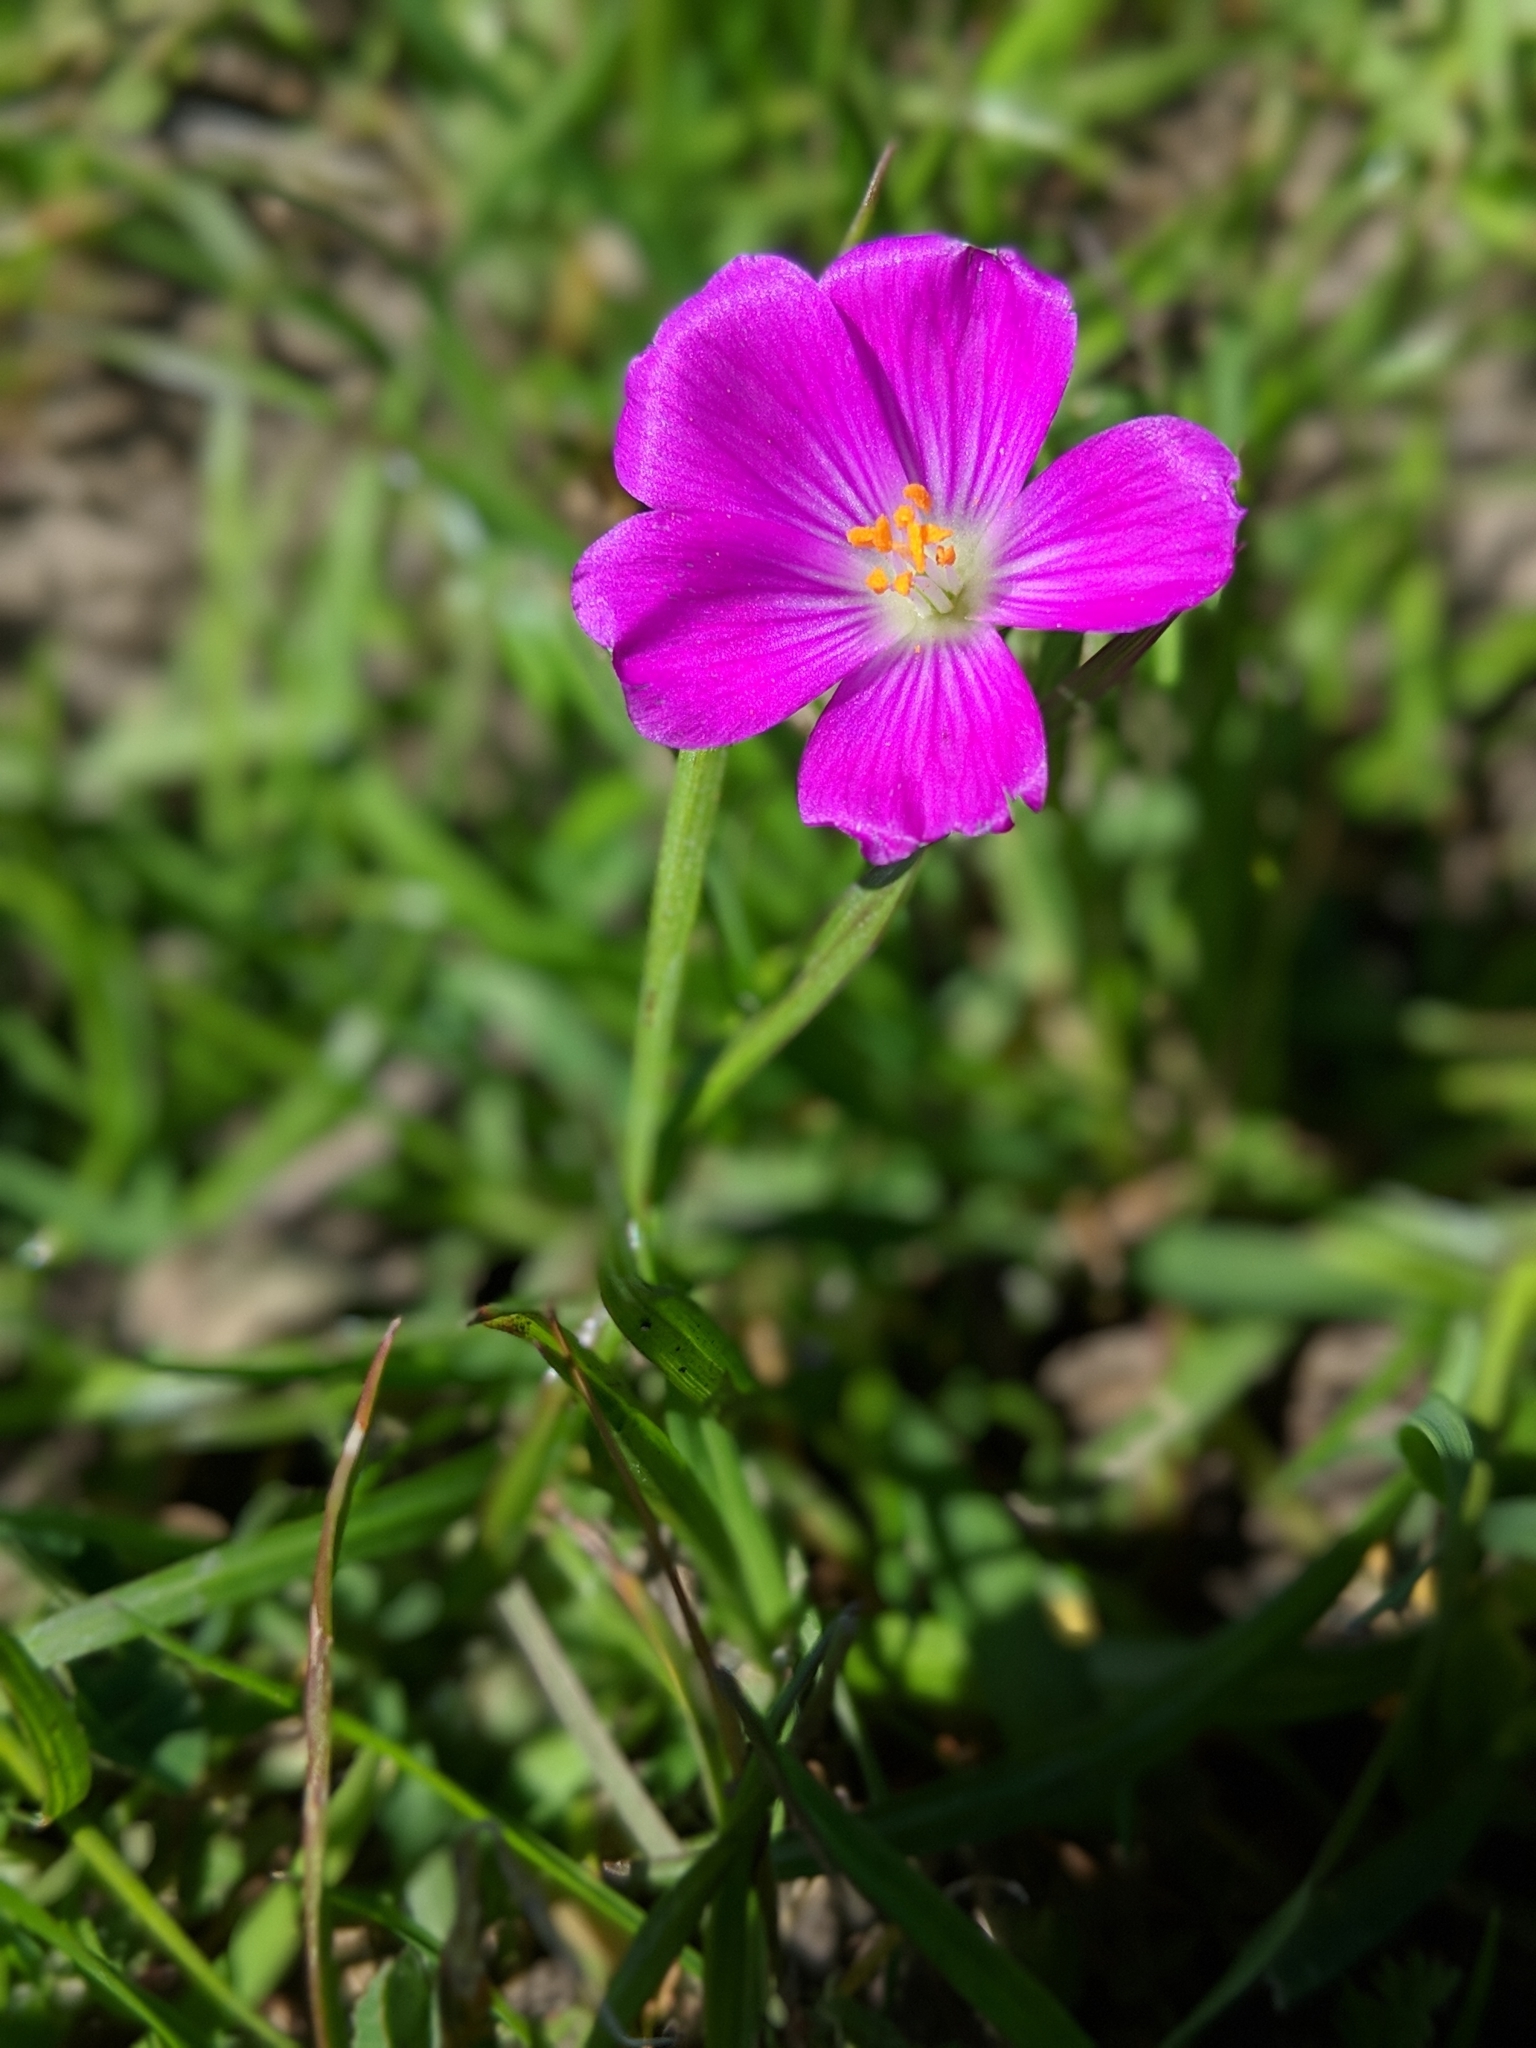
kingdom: Plantae
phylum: Tracheophyta
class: Magnoliopsida
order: Caryophyllales
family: Montiaceae
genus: Calandrinia
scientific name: Calandrinia menziesii
